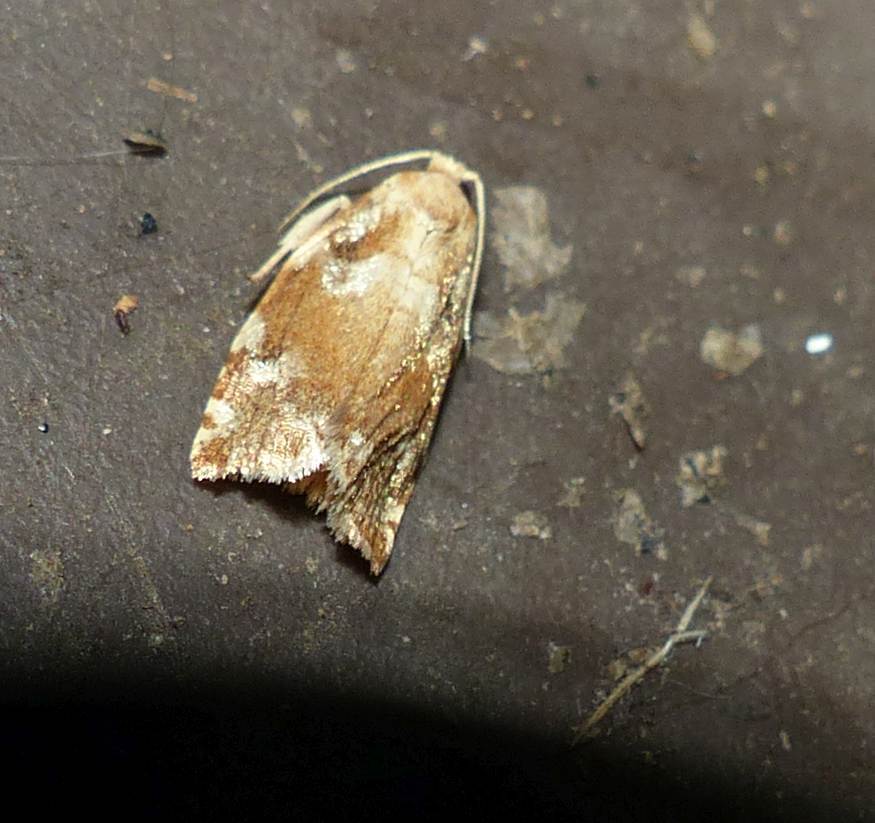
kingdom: Animalia
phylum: Arthropoda
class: Insecta
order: Lepidoptera
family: Tortricidae
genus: Archips
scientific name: Archips semiferanus
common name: Oak leafroller
